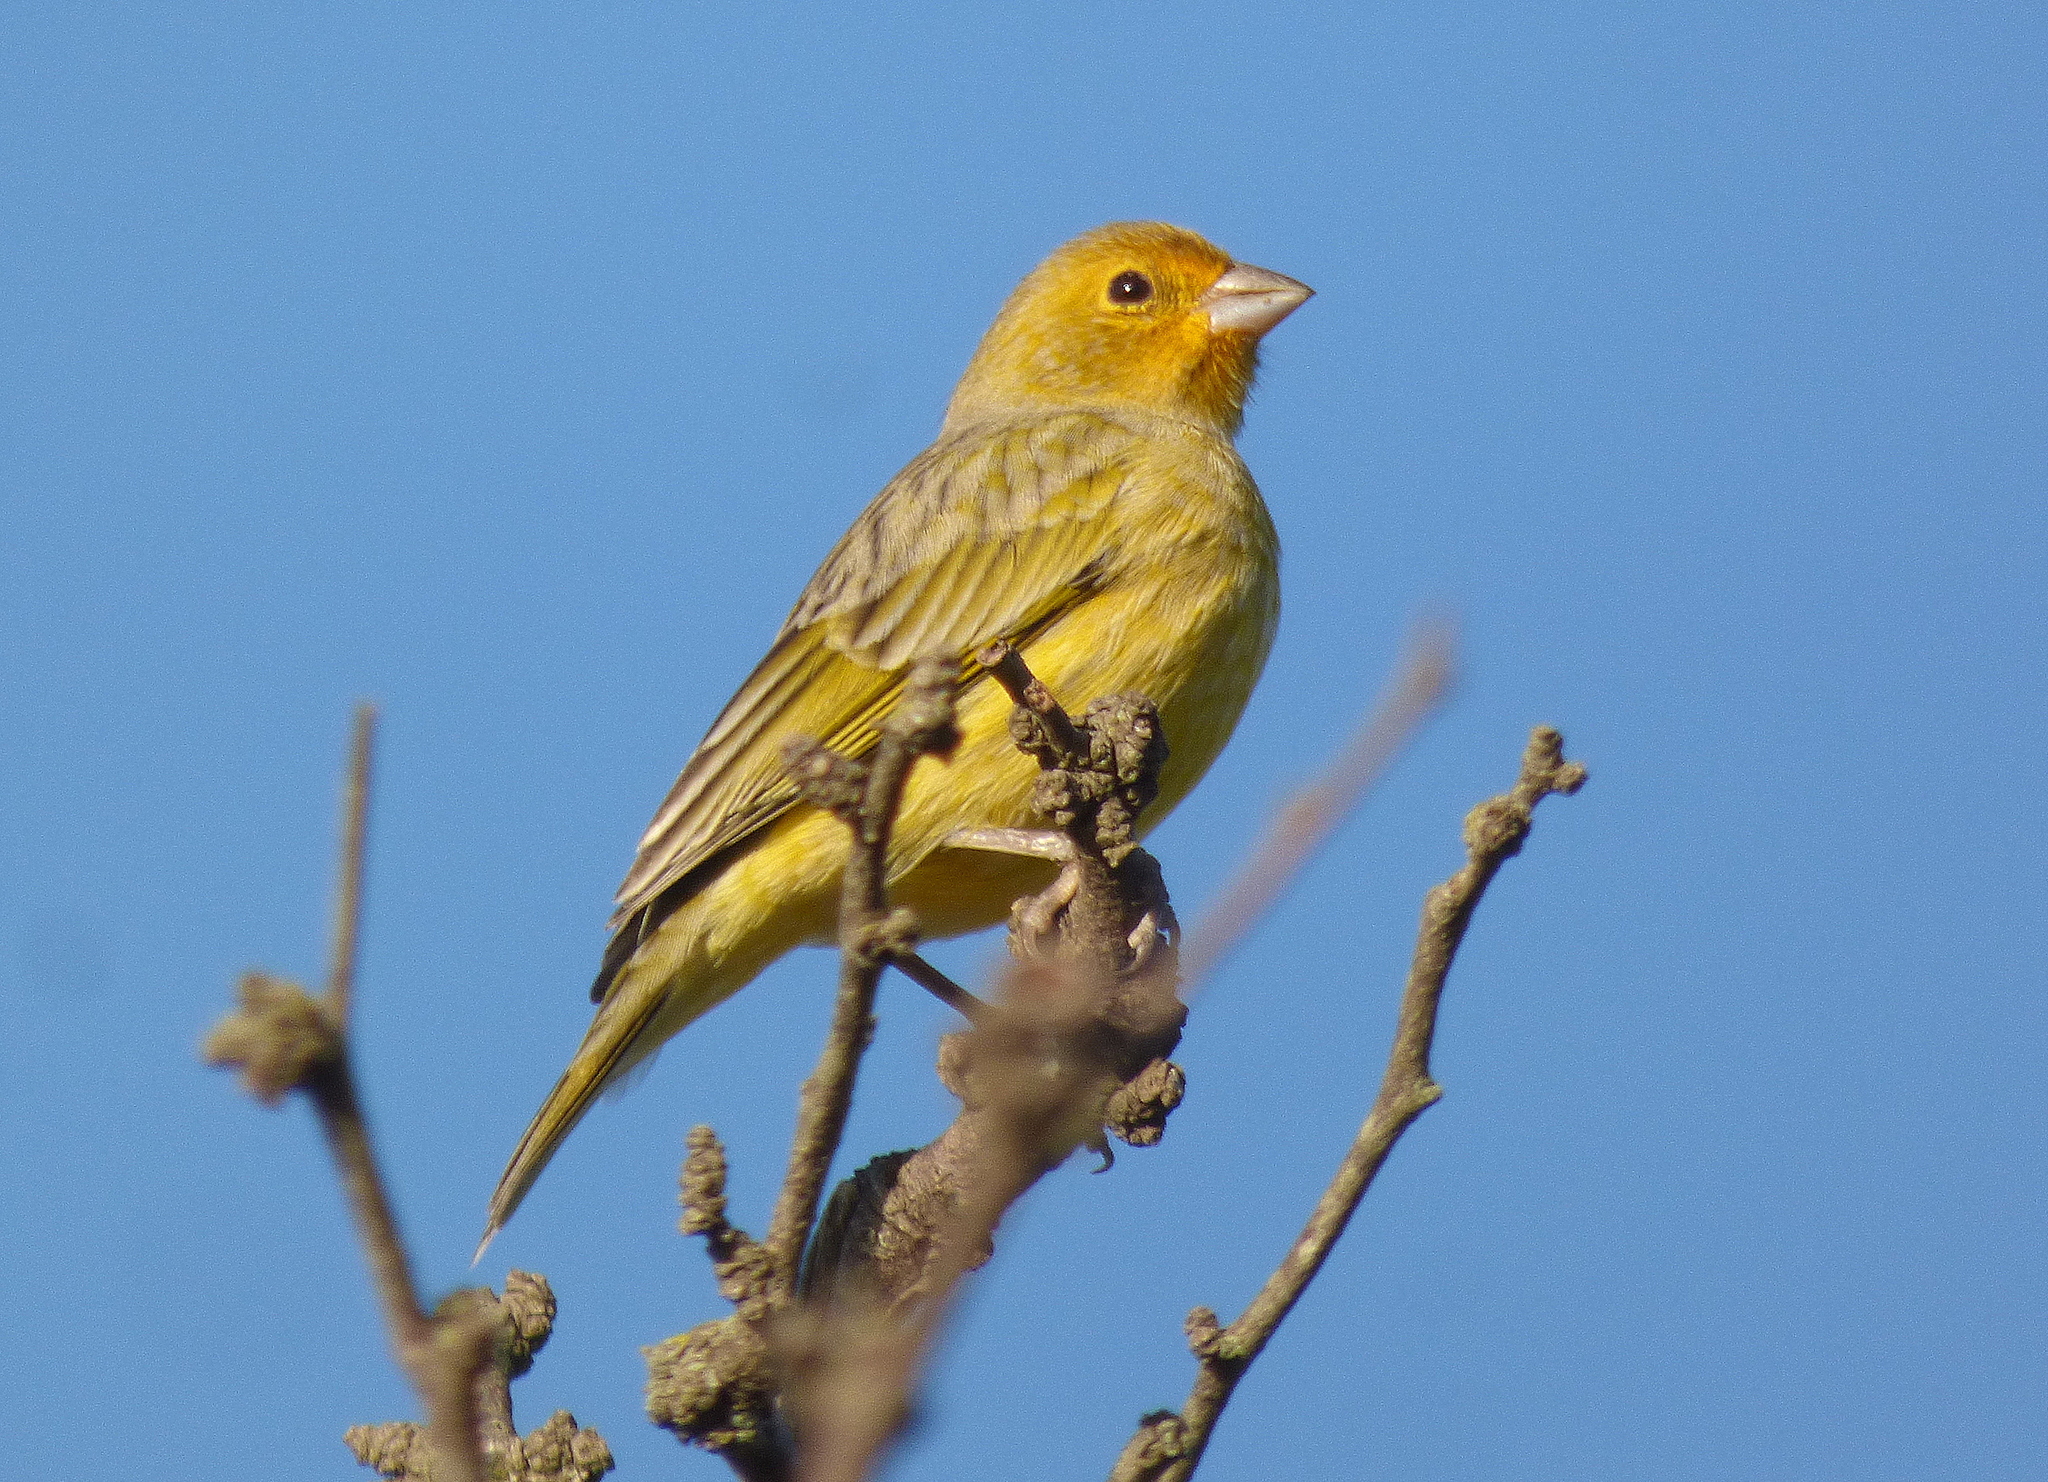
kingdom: Animalia
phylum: Chordata
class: Aves
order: Passeriformes
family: Thraupidae
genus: Sicalis
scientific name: Sicalis flaveola
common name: Saffron finch
